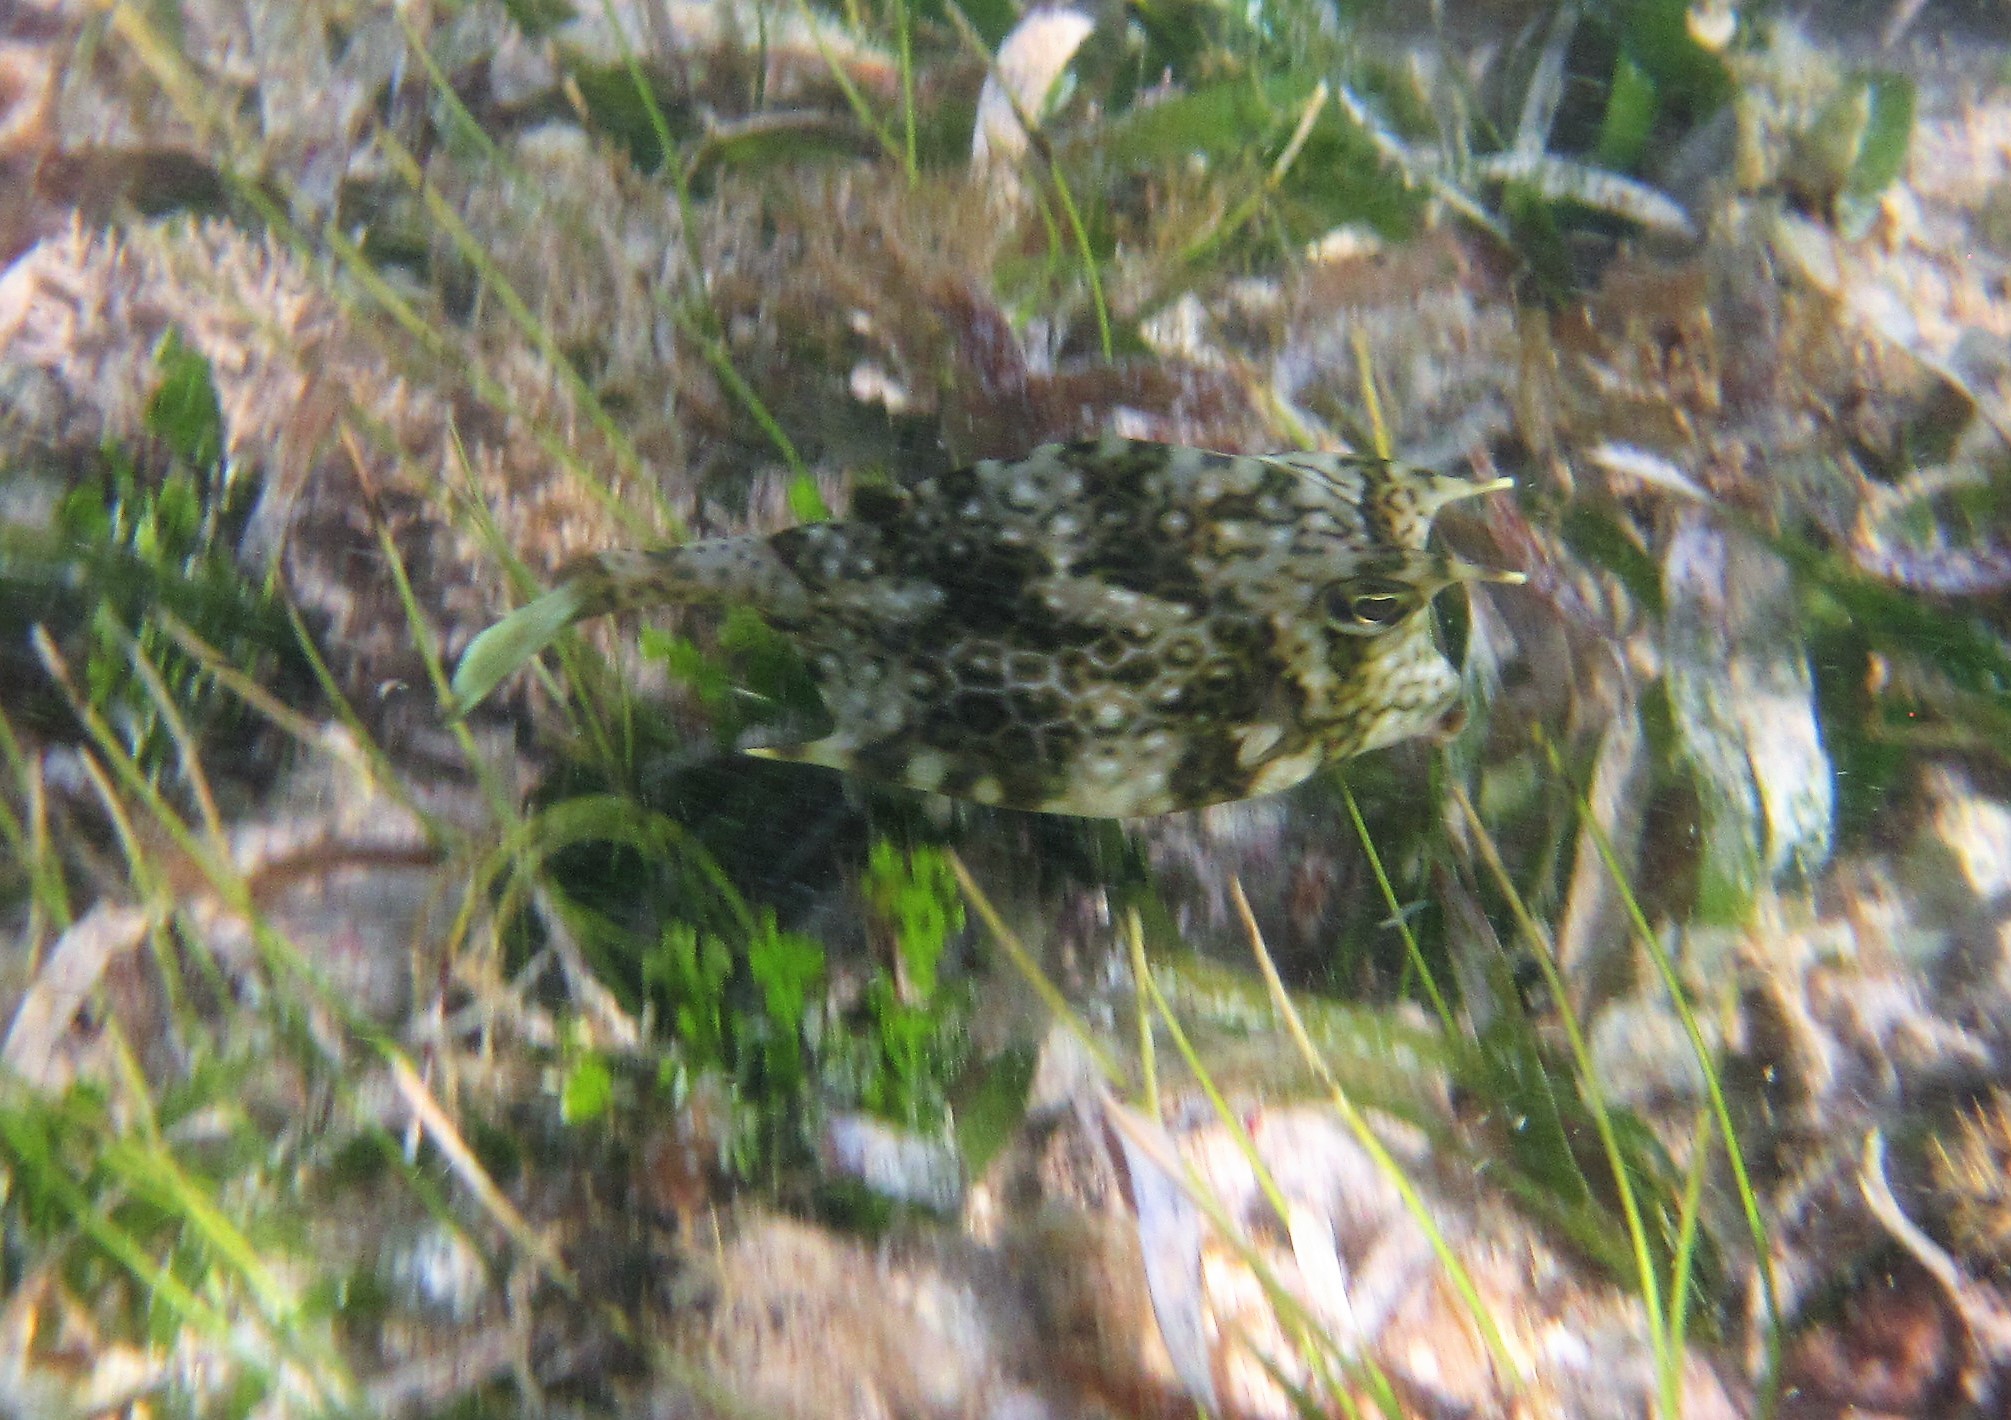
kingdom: Animalia
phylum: Chordata
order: Tetraodontiformes
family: Ostraciidae
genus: Acanthostracion
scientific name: Acanthostracion polygonius
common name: Honeycomb cowfish
